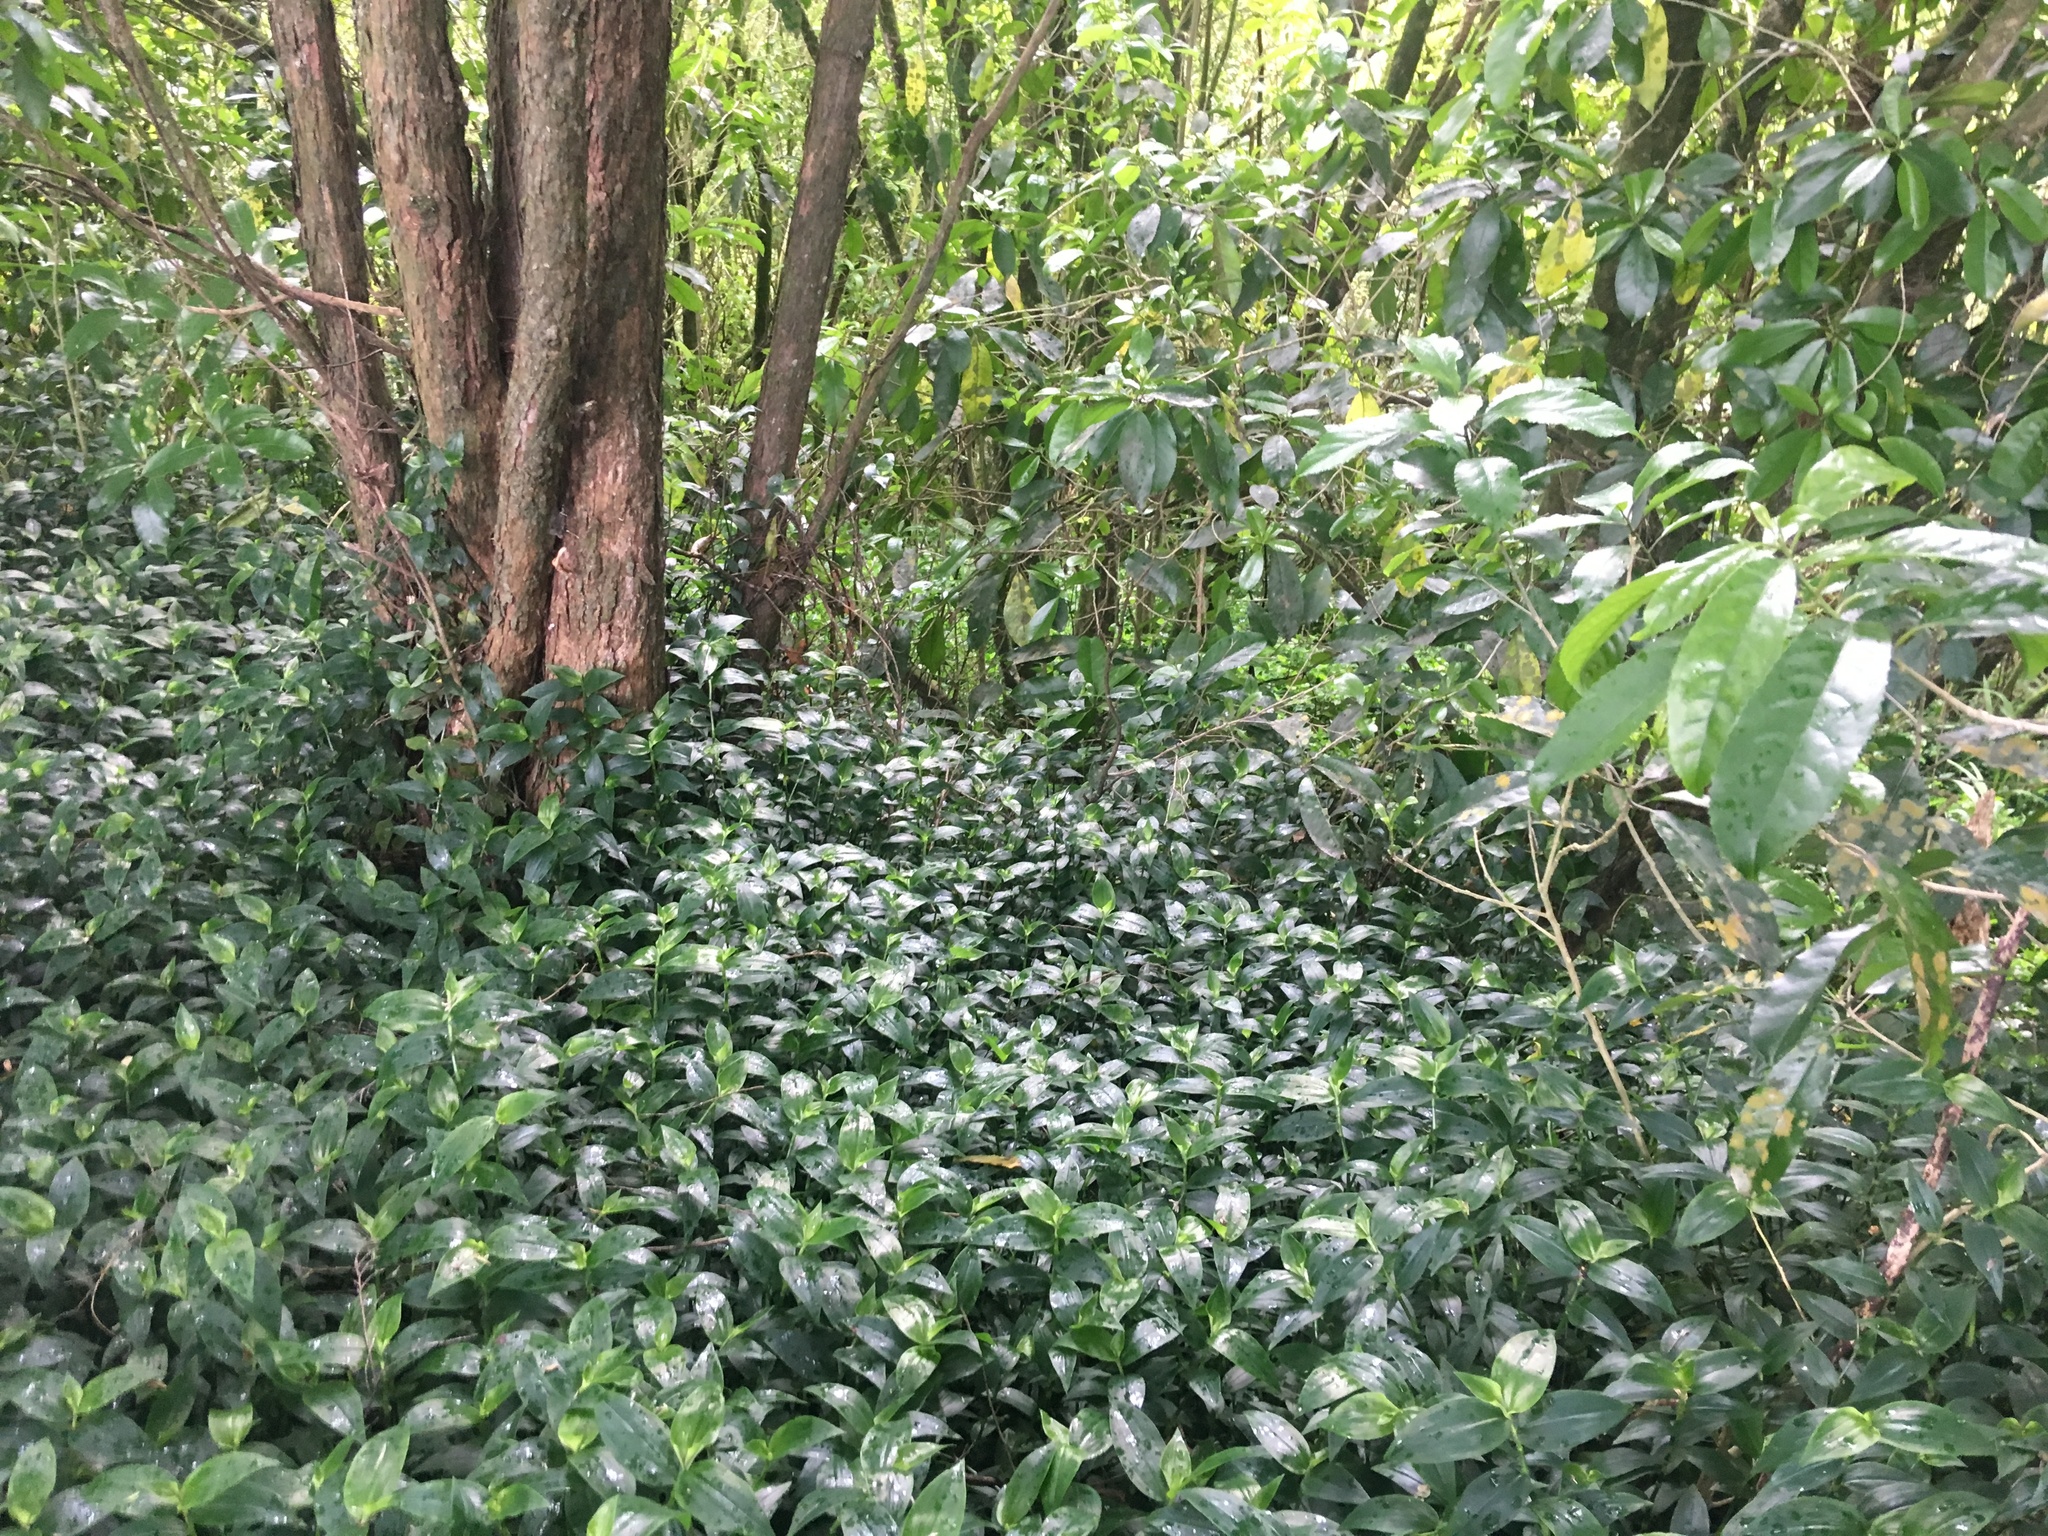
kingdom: Plantae
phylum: Tracheophyta
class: Liliopsida
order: Commelinales
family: Commelinaceae
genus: Tradescantia
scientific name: Tradescantia fluminensis
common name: Wandering-jew
